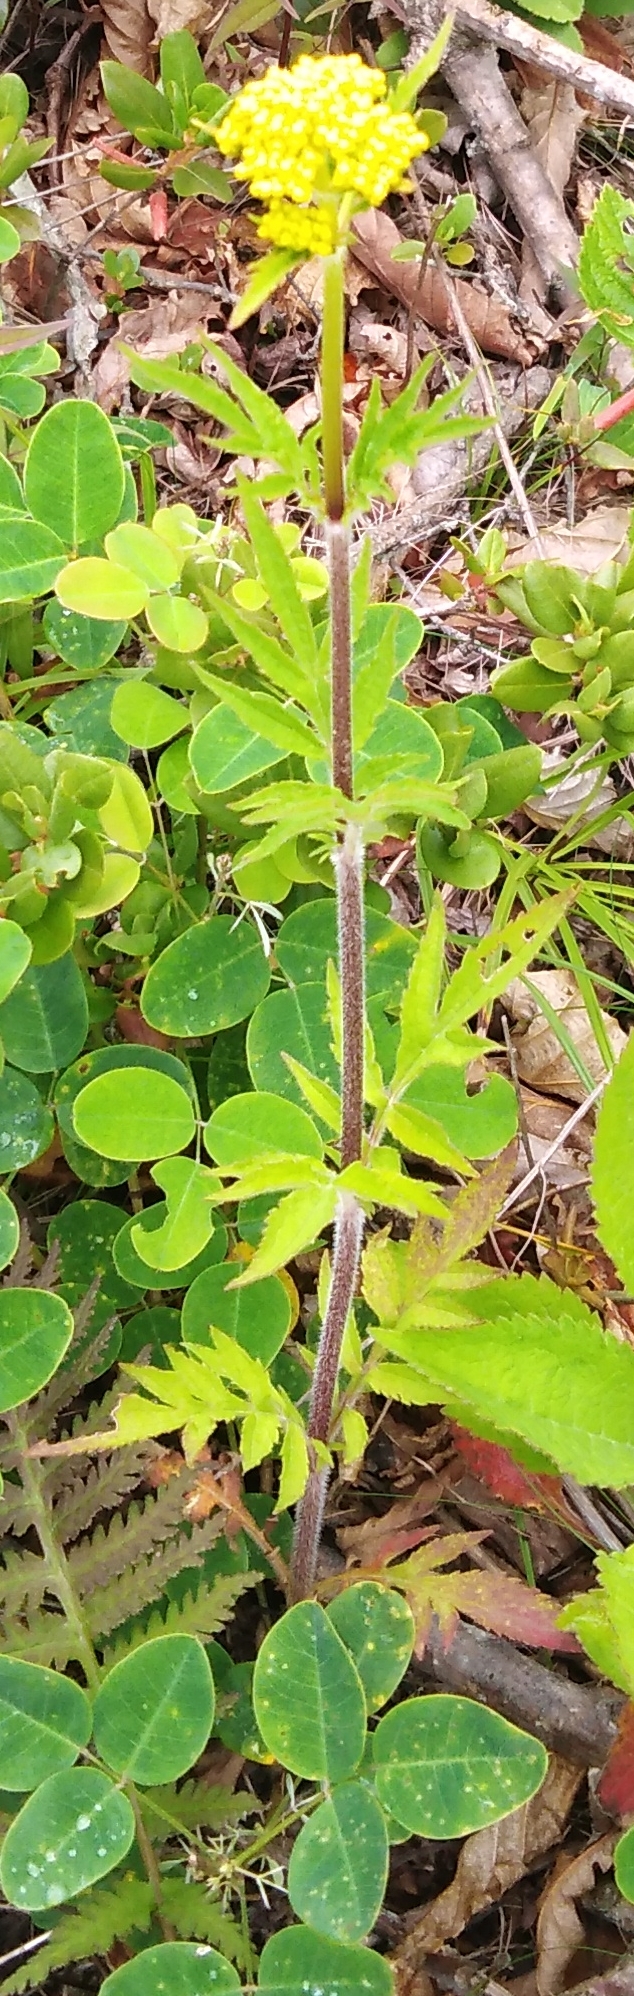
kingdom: Plantae
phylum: Tracheophyta
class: Magnoliopsida
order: Dipsacales
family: Caprifoliaceae
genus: Patrinia
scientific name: Patrinia scabiosifolia
